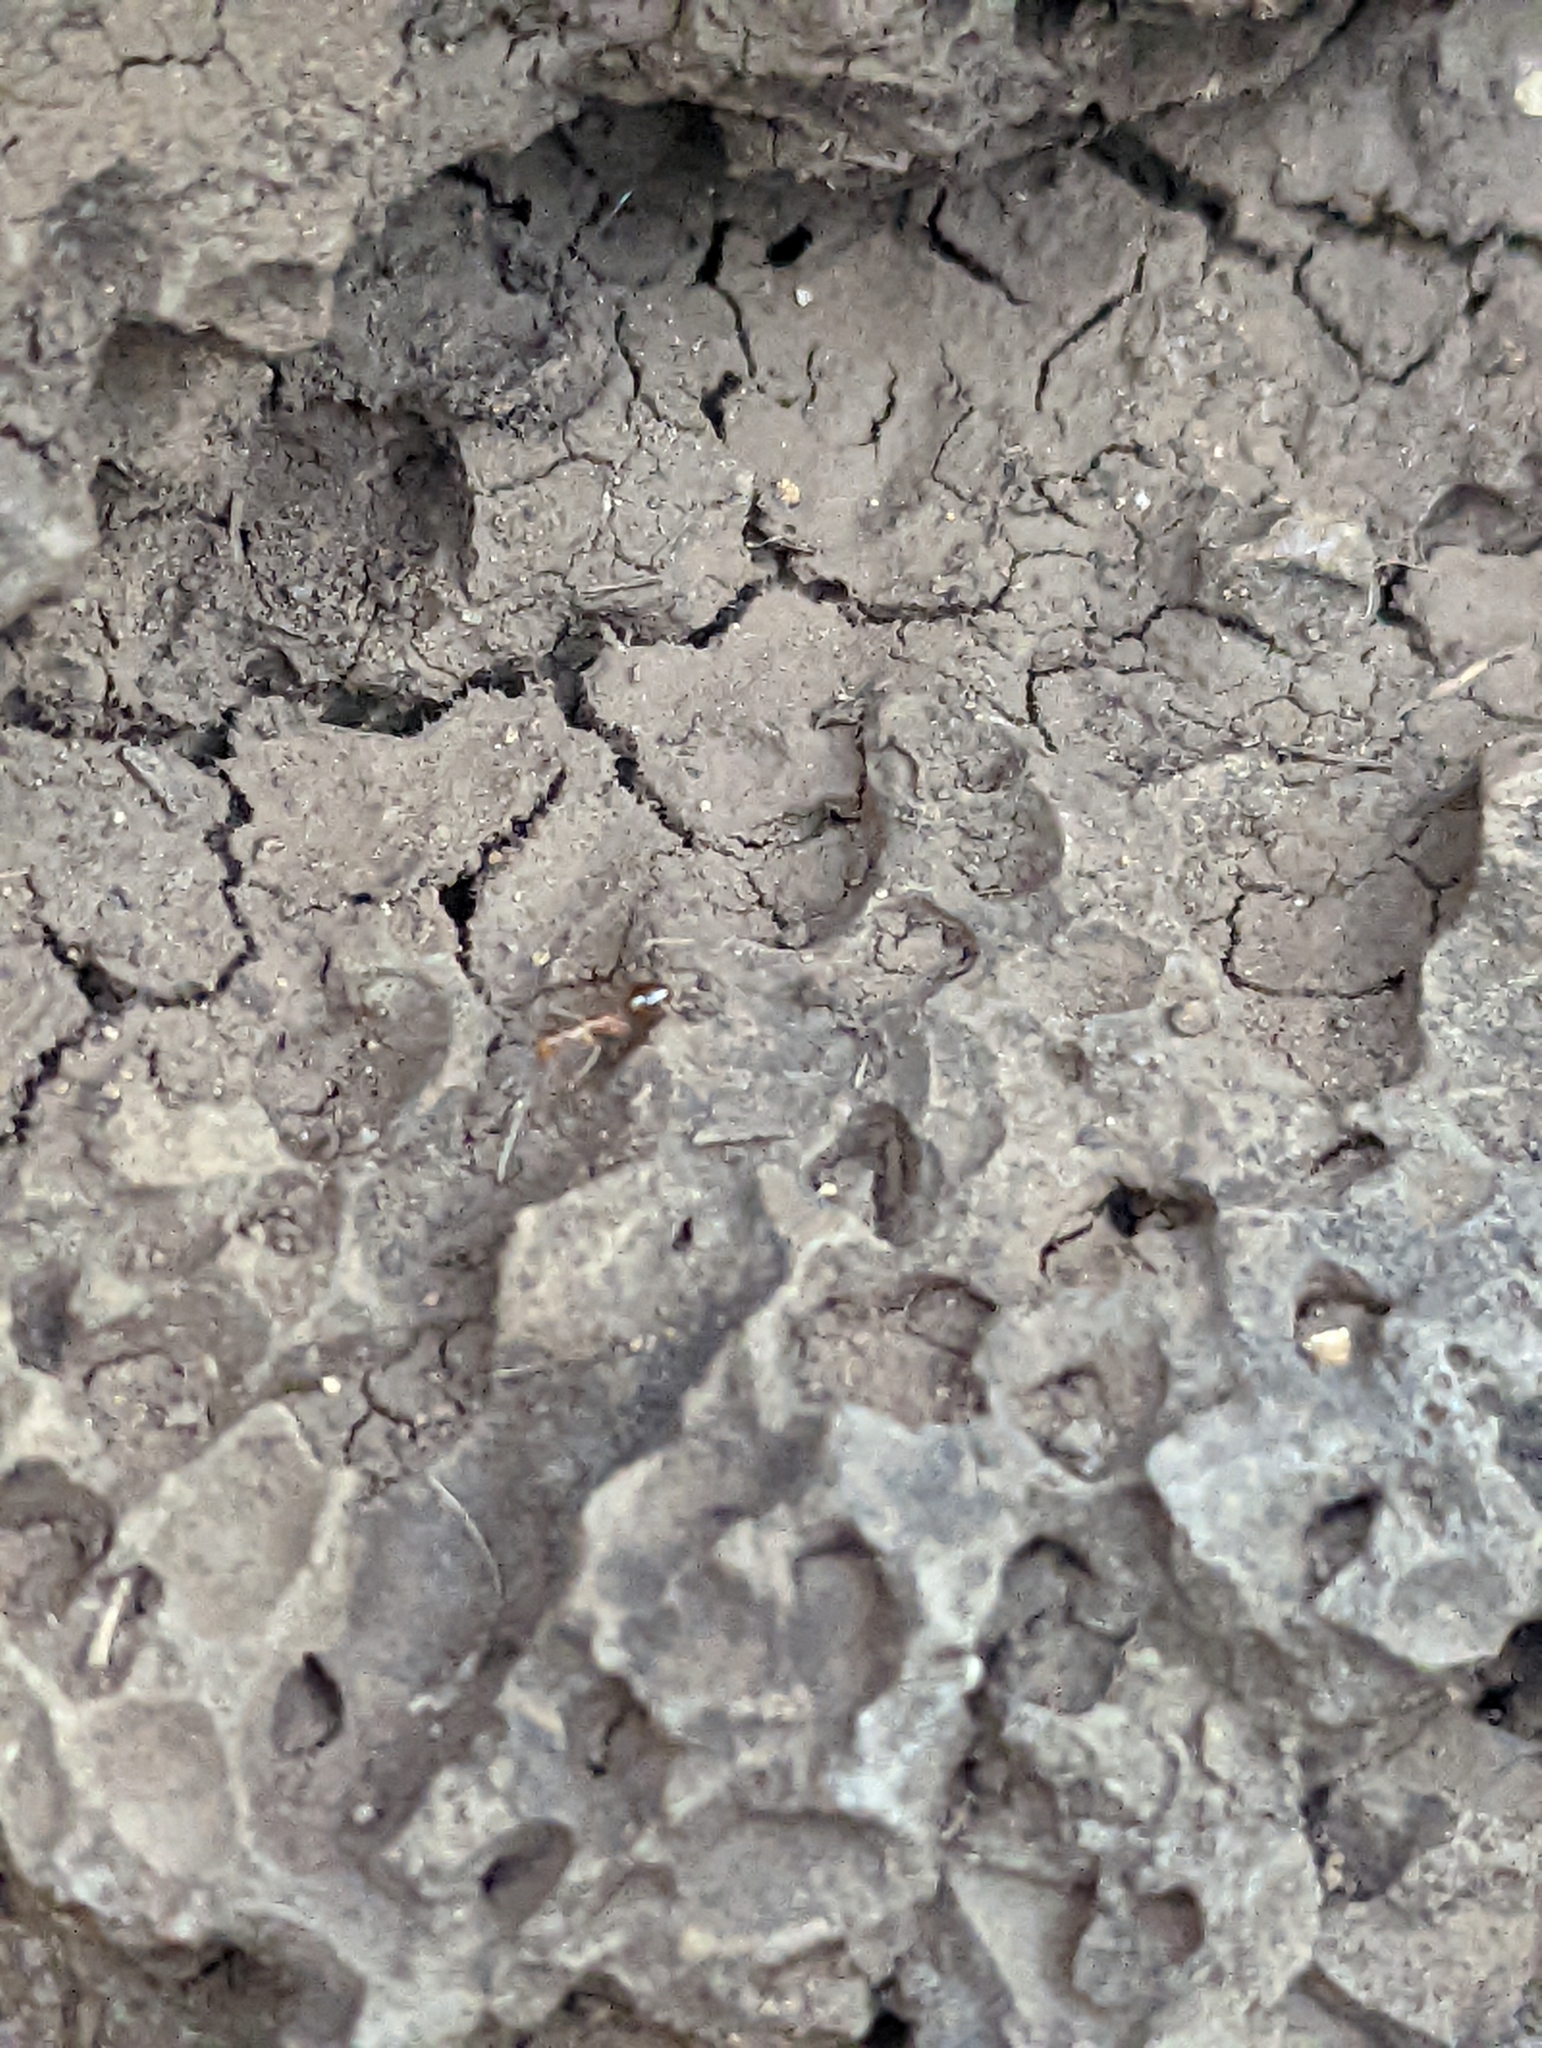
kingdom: Animalia
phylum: Arthropoda
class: Insecta
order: Hymenoptera
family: Formicidae
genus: Anoplolepis
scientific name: Anoplolepis gracilipes
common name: Ant
